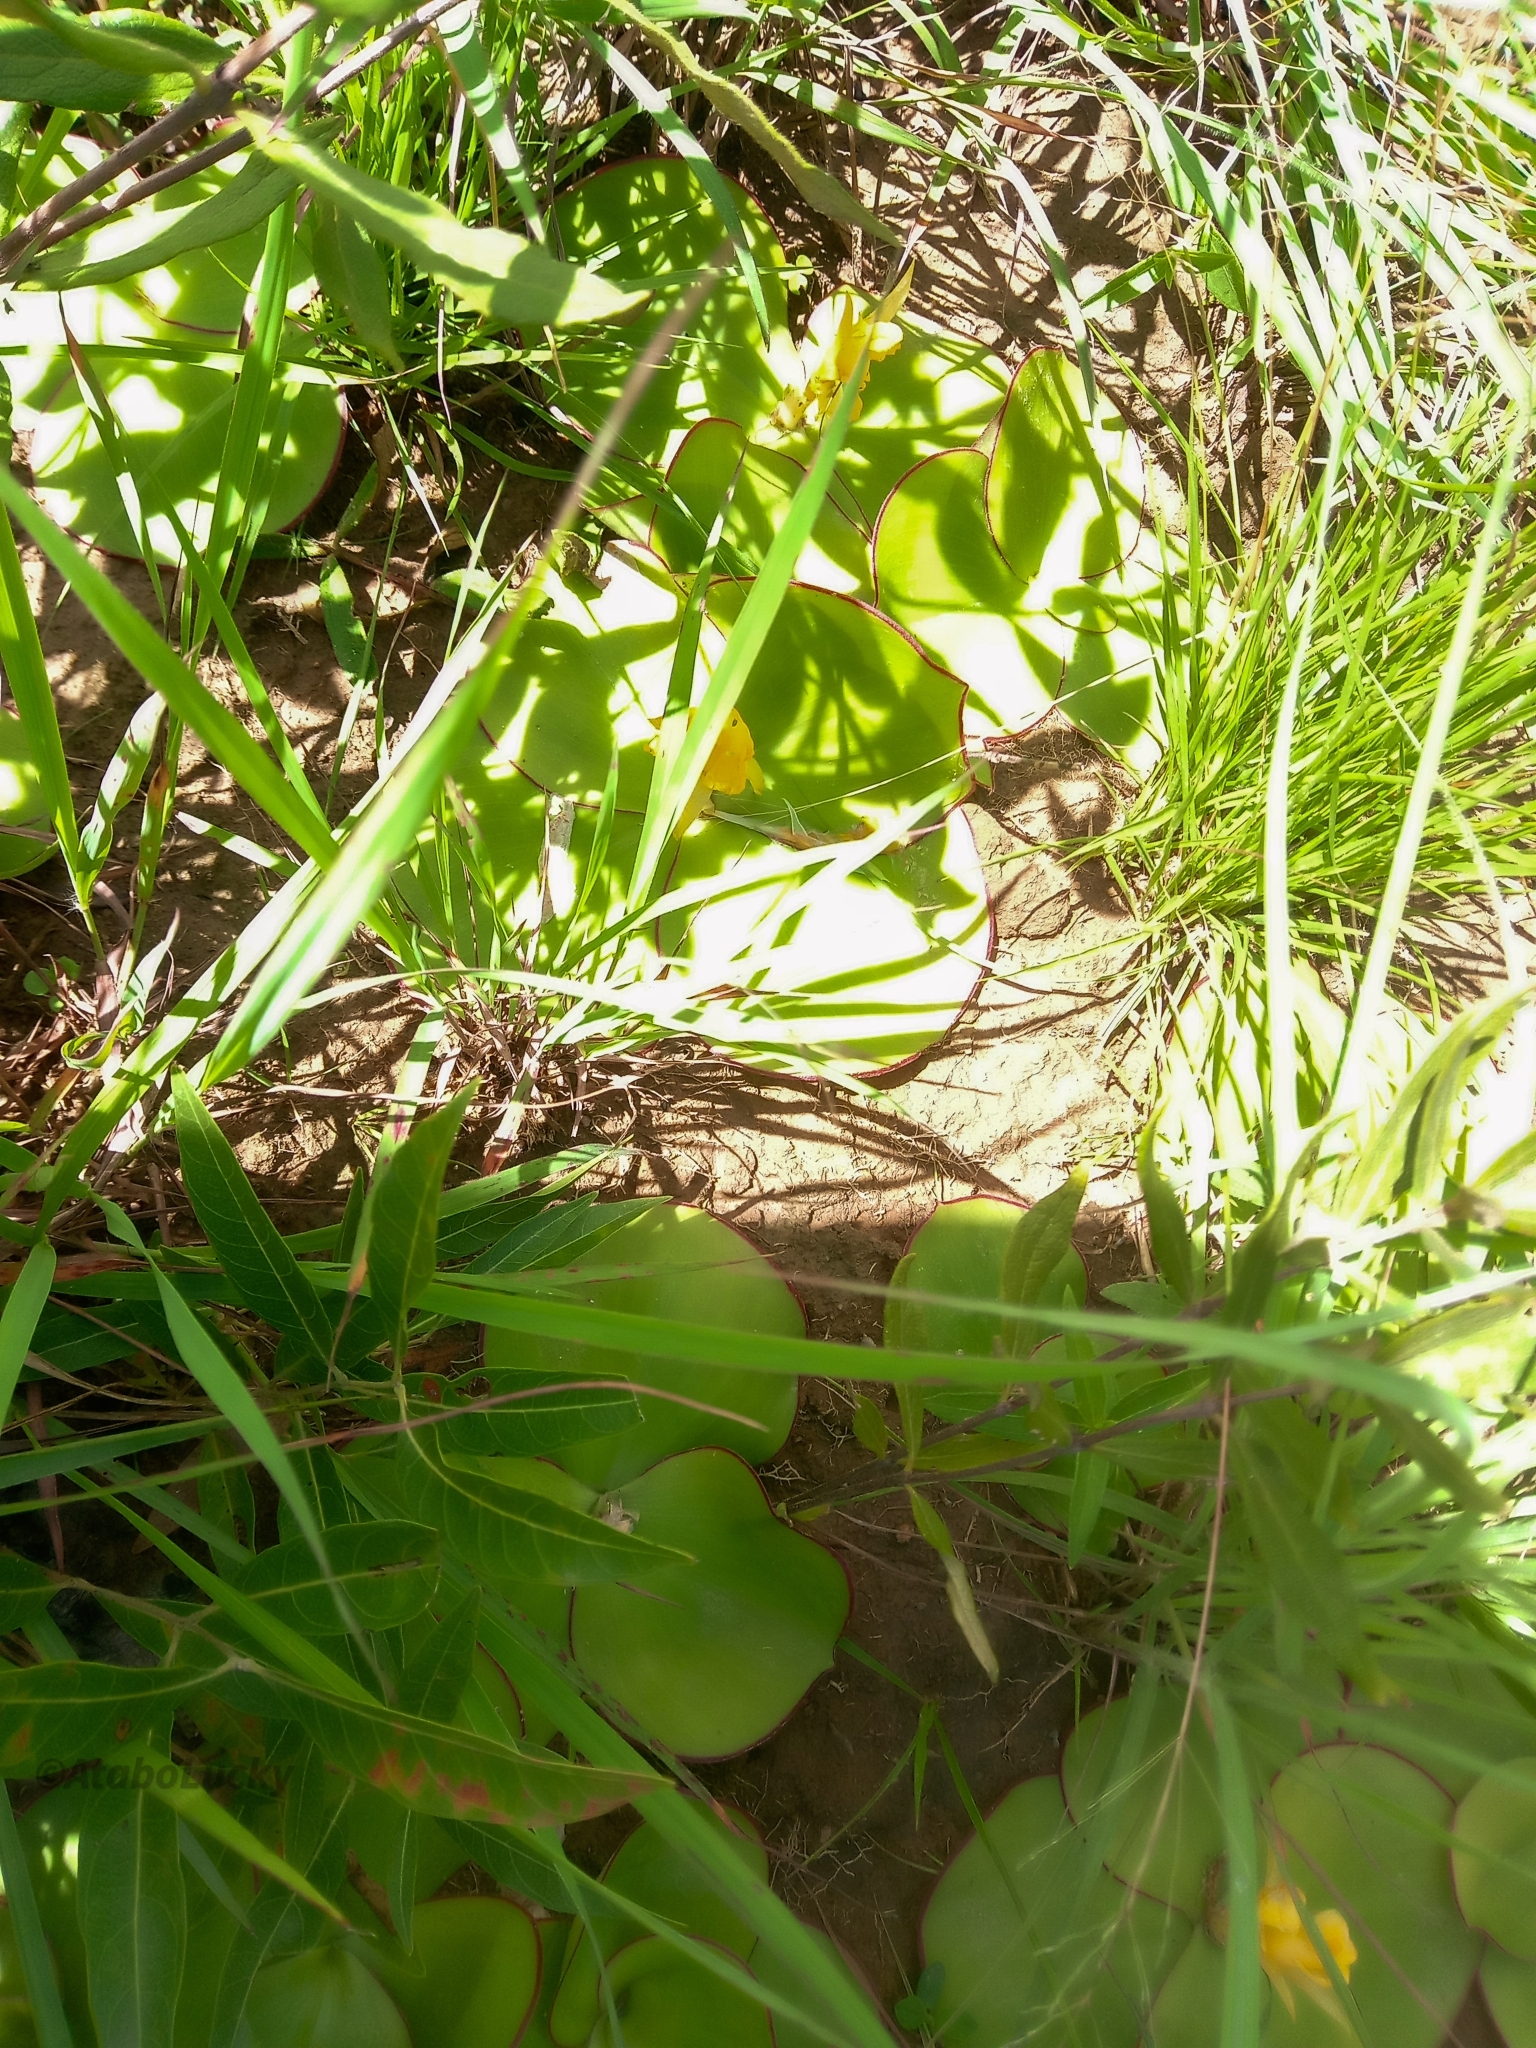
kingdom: Plantae
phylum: Tracheophyta
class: Liliopsida
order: Zingiberales
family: Costaceae
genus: Costus
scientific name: Costus spectabilis
